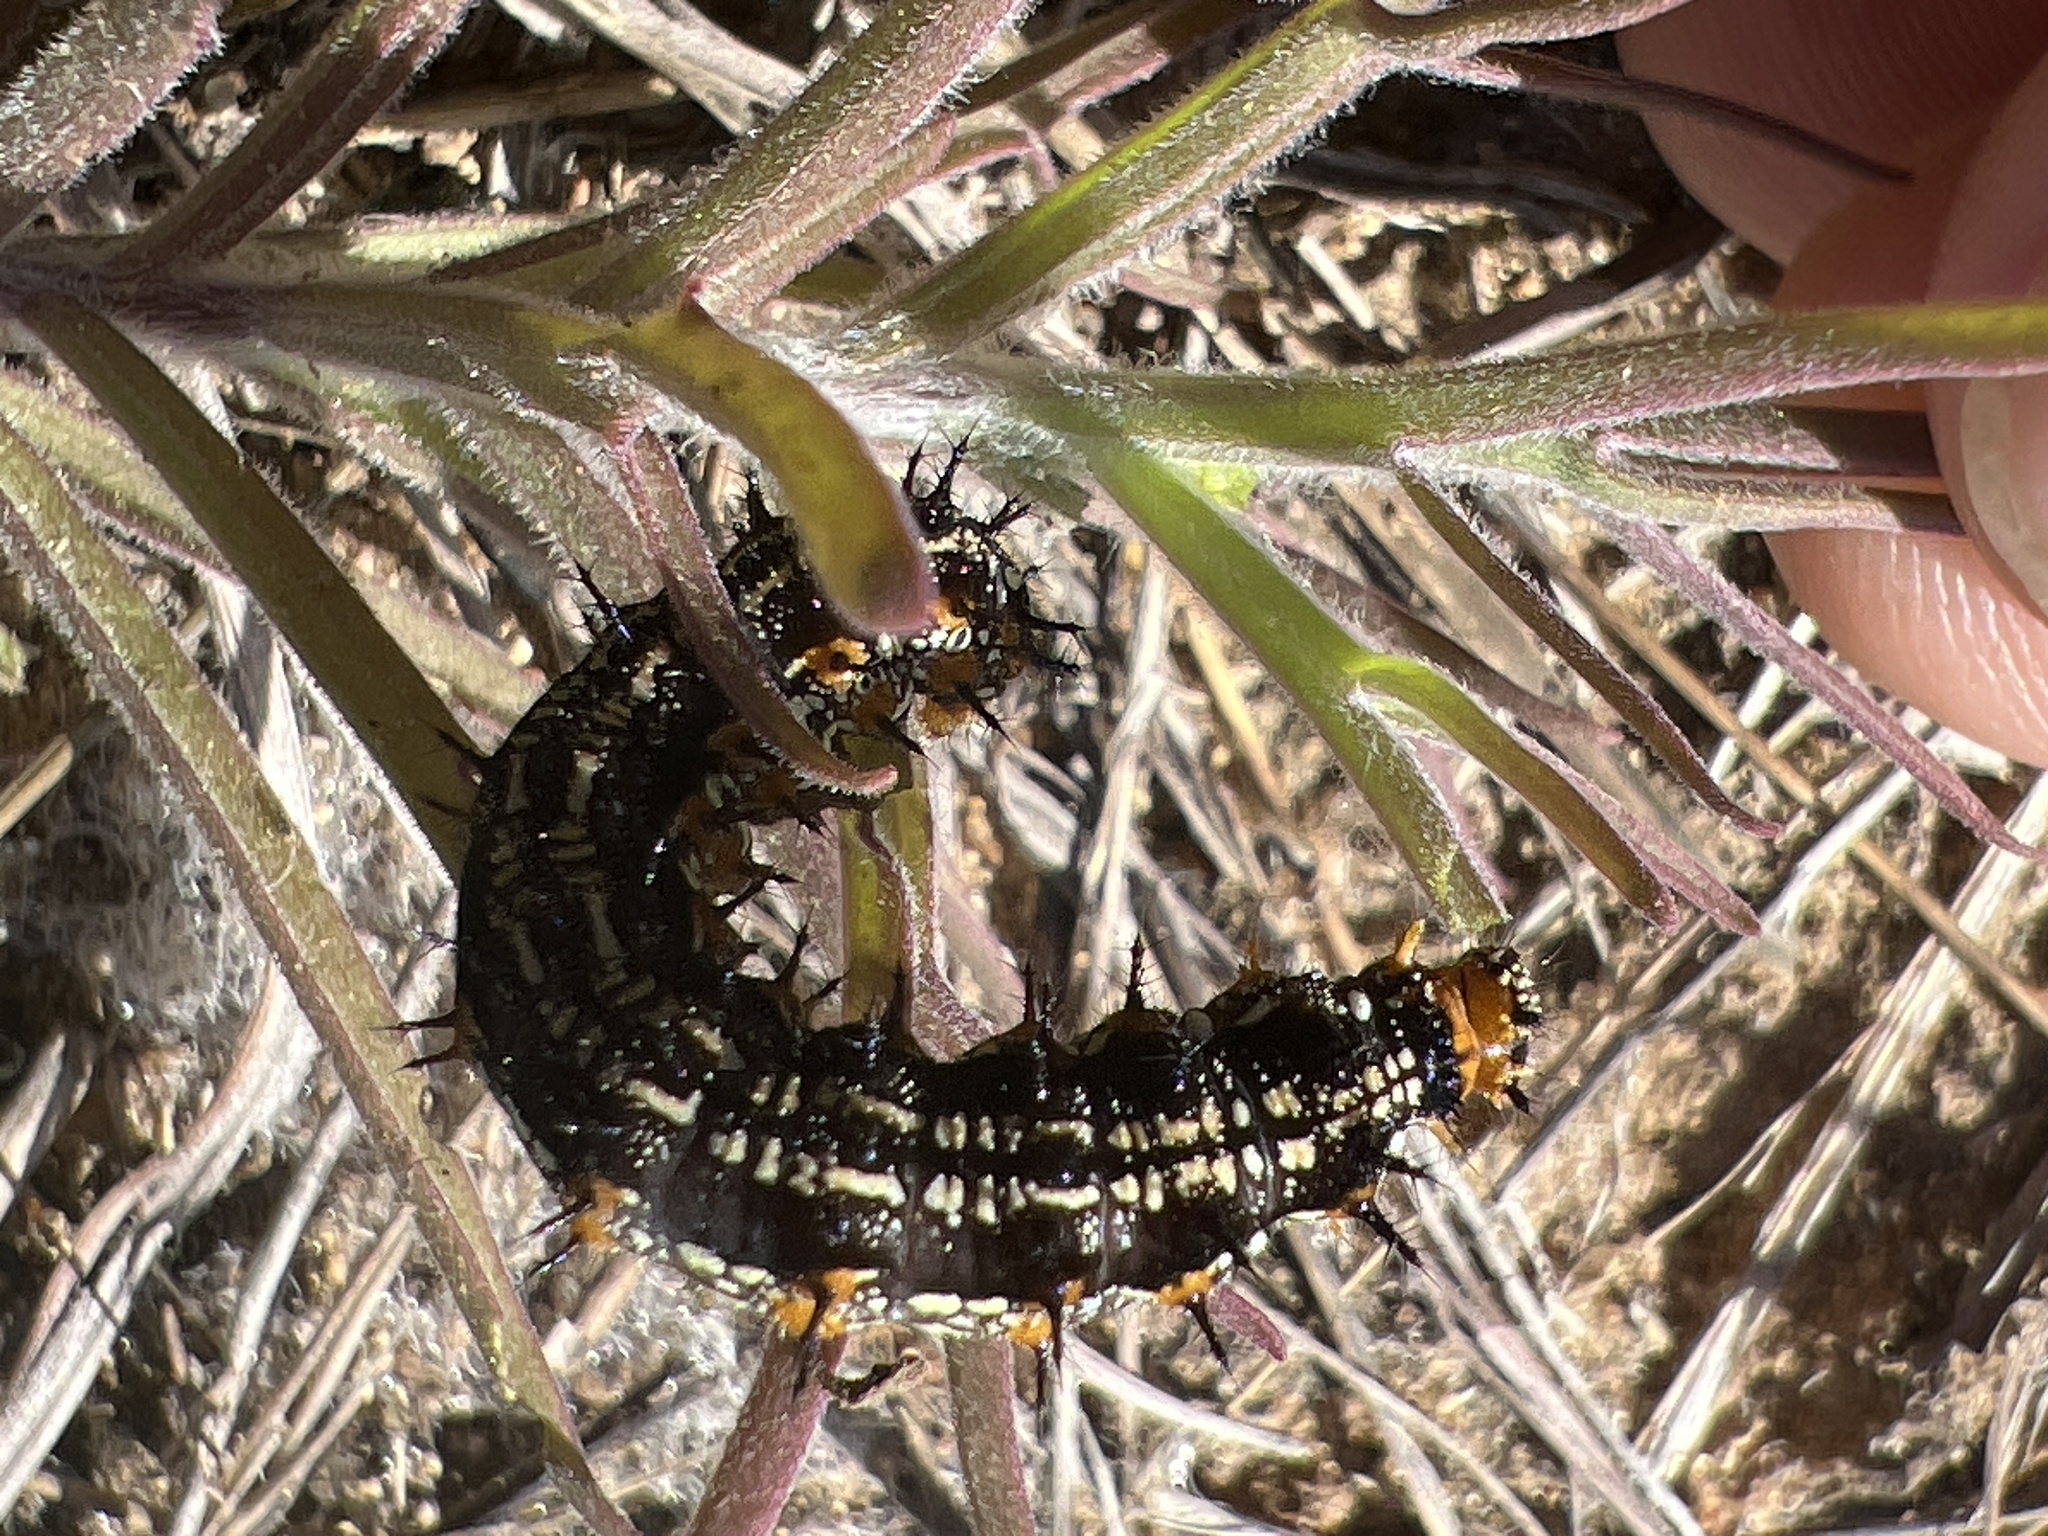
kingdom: Animalia
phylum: Arthropoda
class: Insecta
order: Lepidoptera
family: Nymphalidae
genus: Junonia
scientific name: Junonia coenia
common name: Common buckeye
